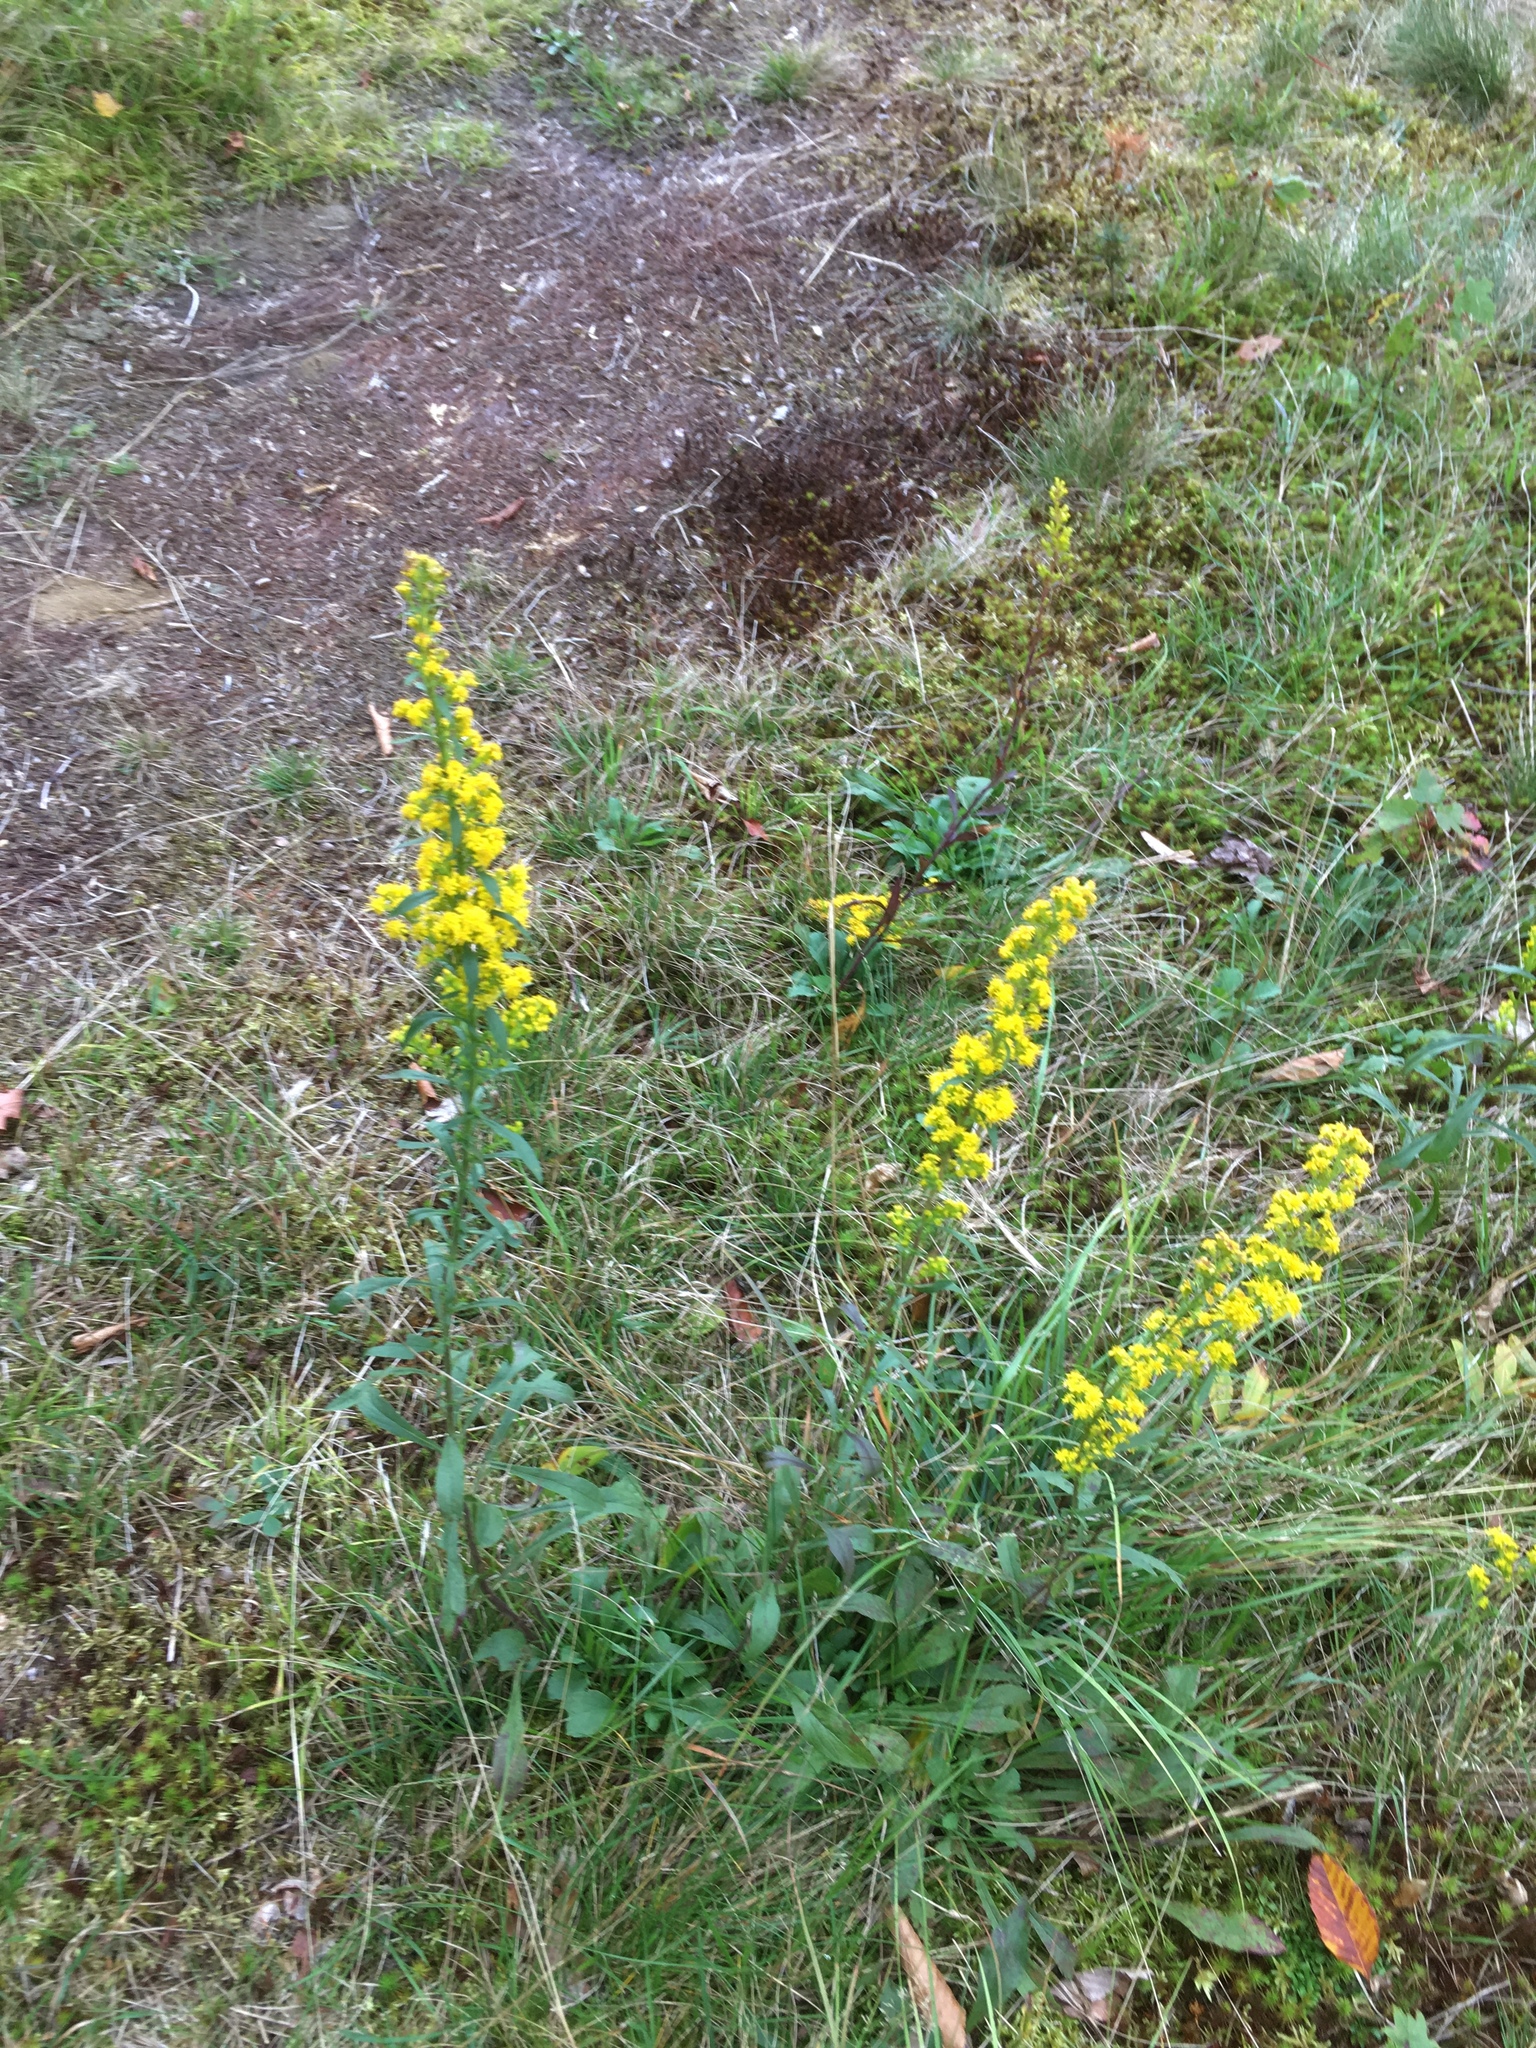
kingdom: Plantae
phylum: Tracheophyta
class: Magnoliopsida
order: Asterales
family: Asteraceae
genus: Solidago
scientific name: Solidago nemoralis
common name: Grey goldenrod
